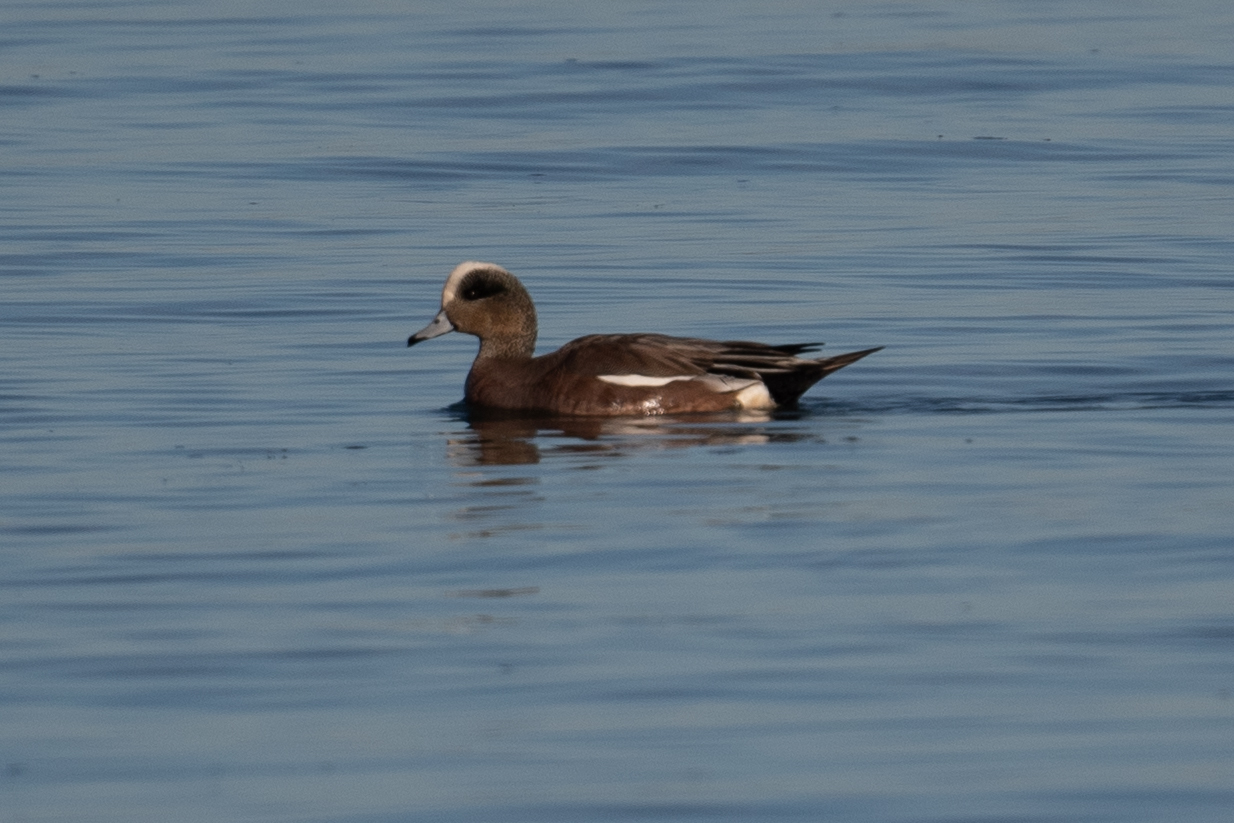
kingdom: Animalia
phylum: Chordata
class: Aves
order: Anseriformes
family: Anatidae
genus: Mareca
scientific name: Mareca americana
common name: American wigeon
